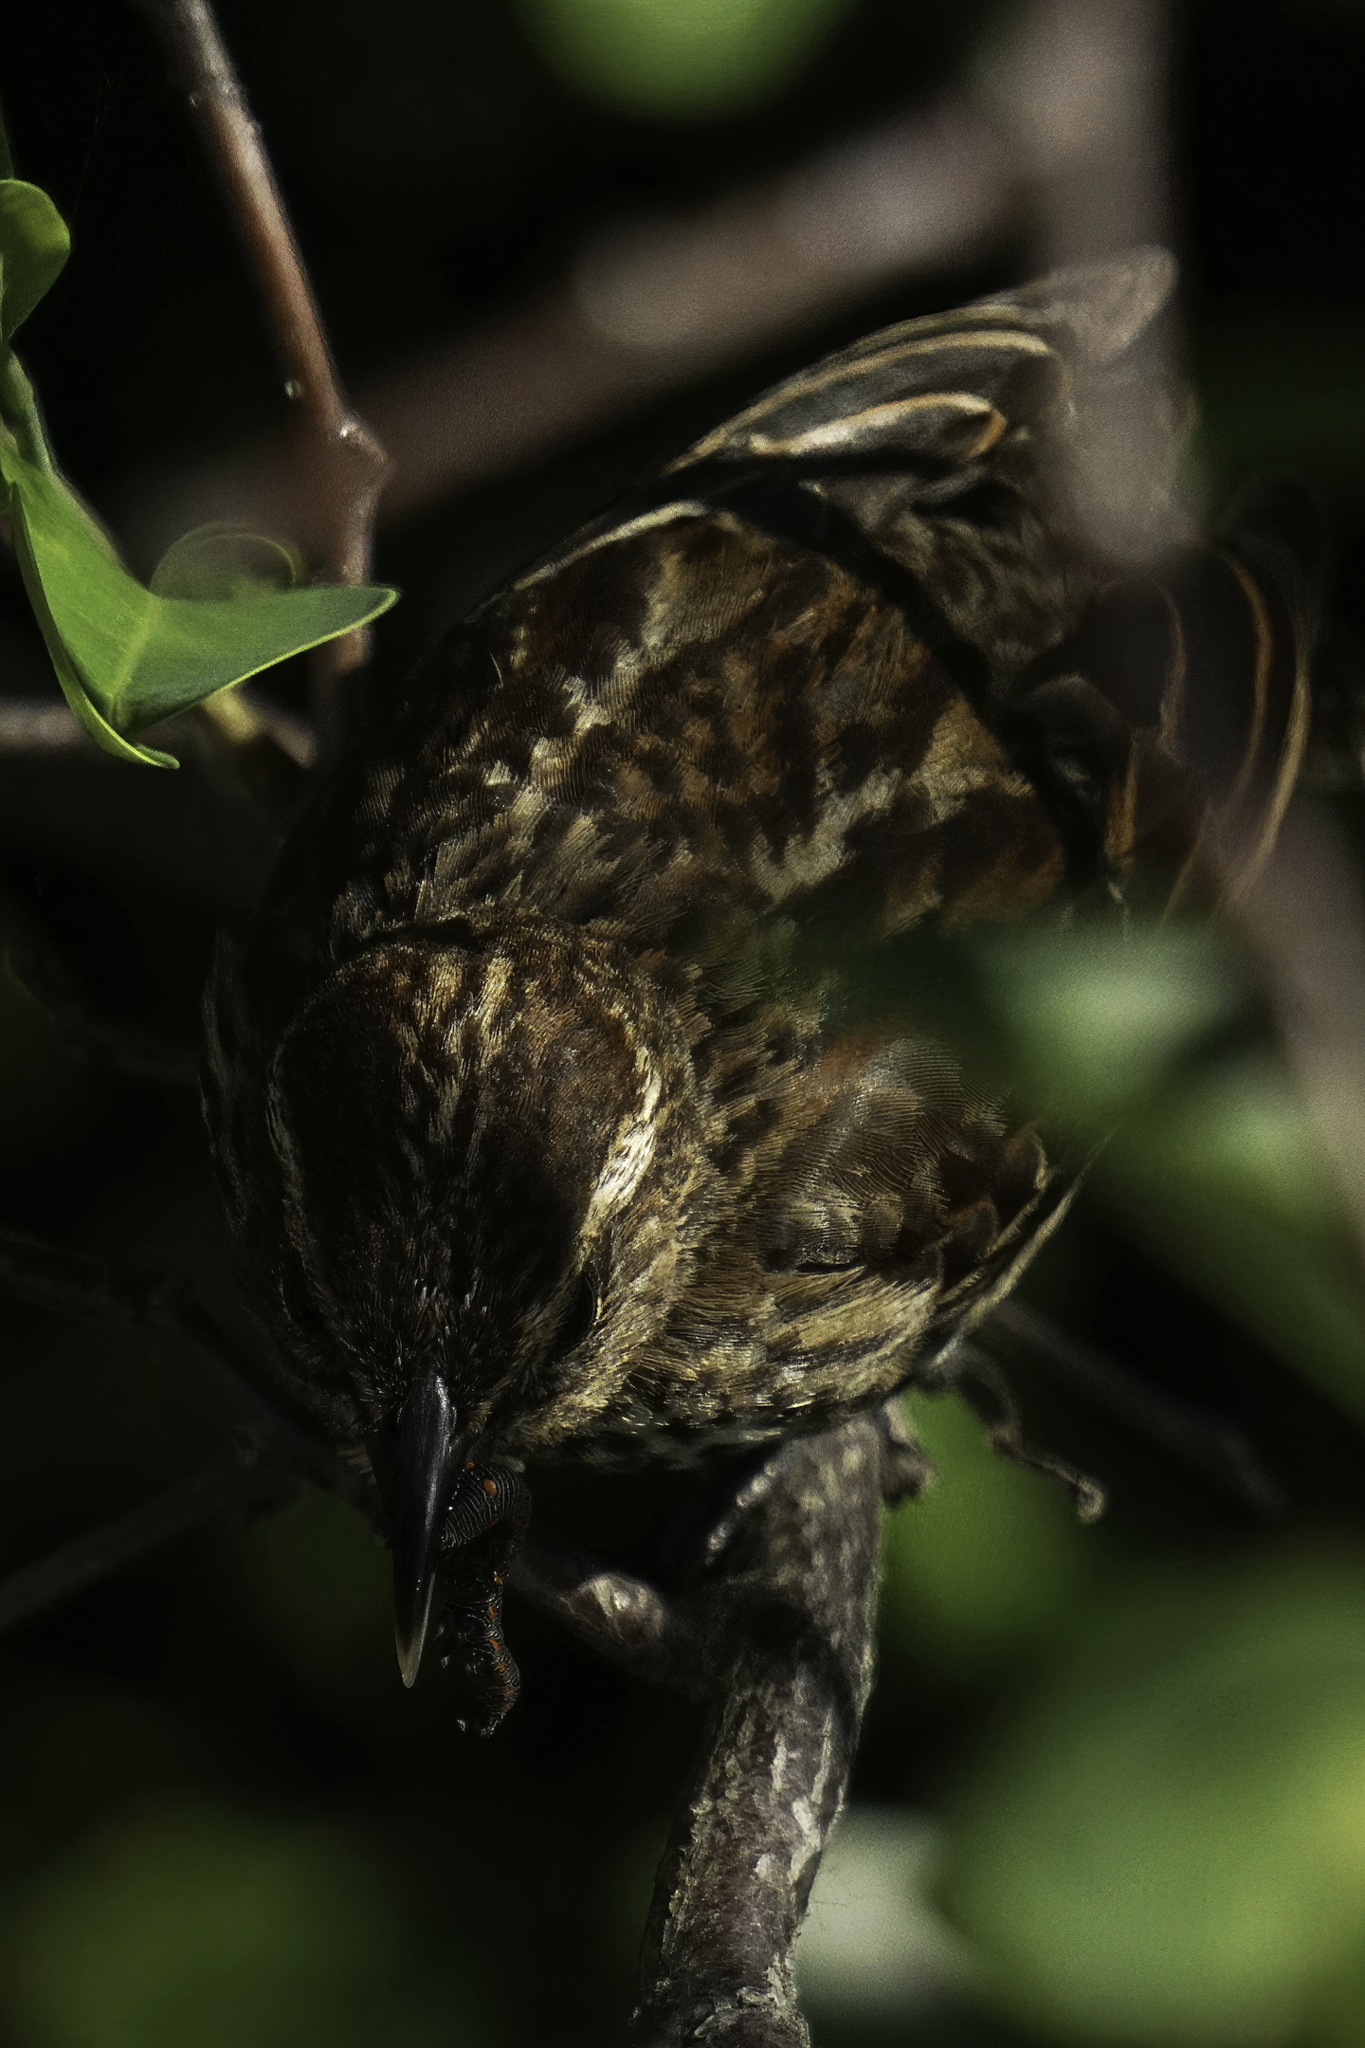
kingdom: Animalia
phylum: Chordata
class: Aves
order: Passeriformes
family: Icteridae
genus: Agelaius
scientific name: Agelaius phoeniceus
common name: Red-winged blackbird
